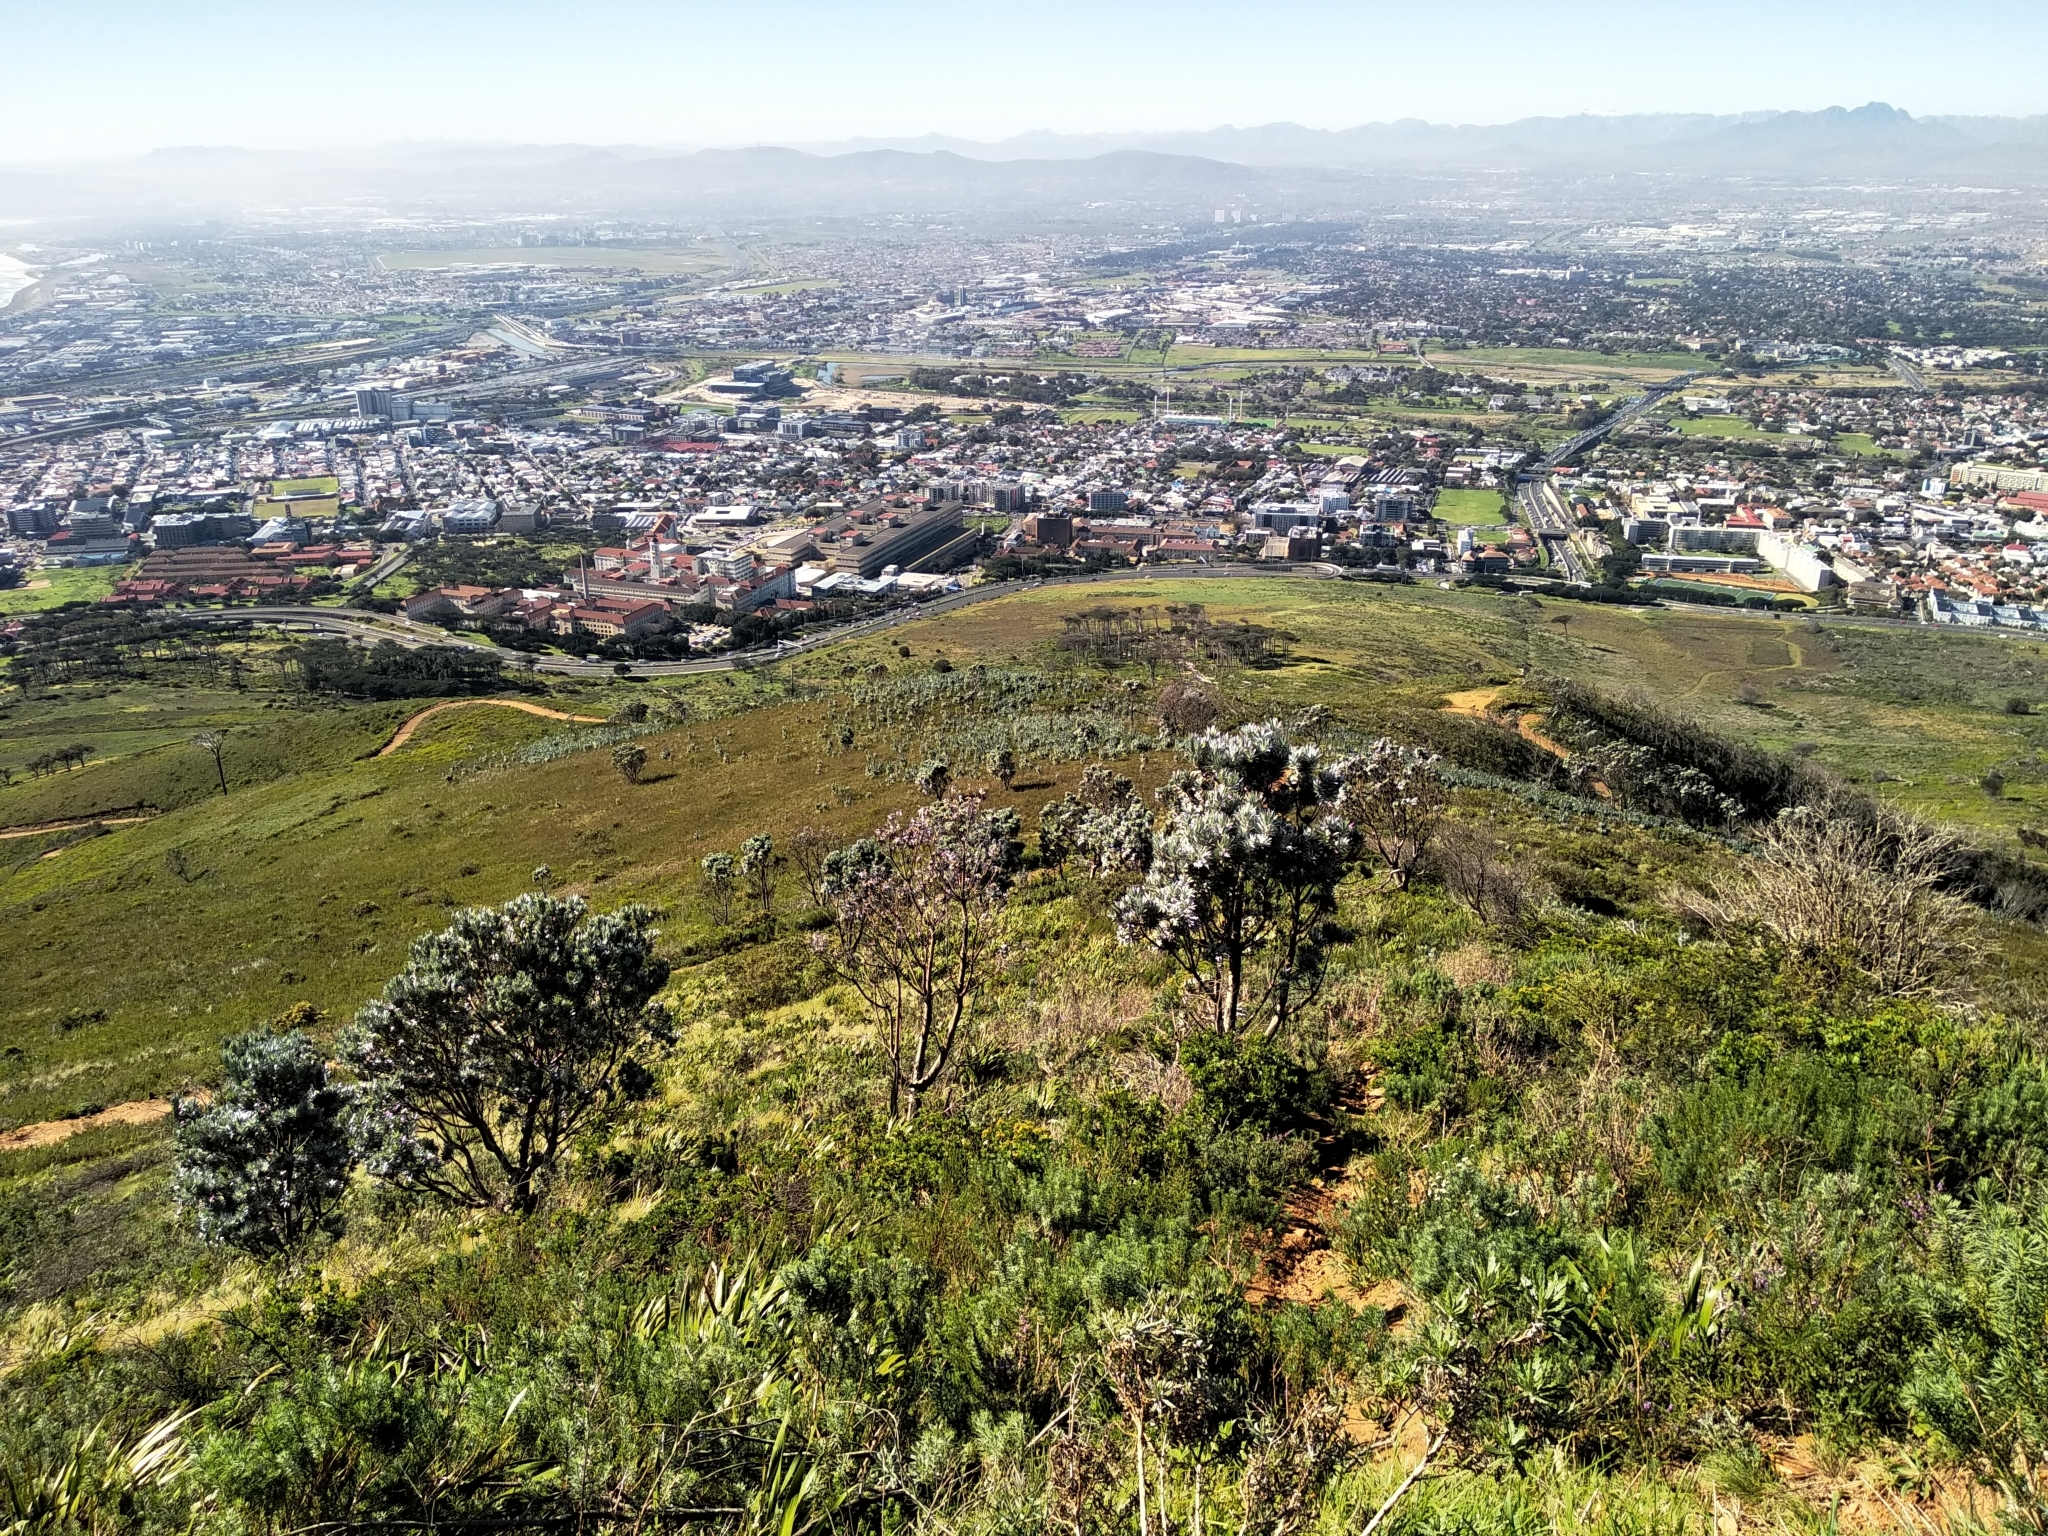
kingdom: Plantae
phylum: Tracheophyta
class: Magnoliopsida
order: Proteales
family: Proteaceae
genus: Leucadendron
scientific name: Leucadendron argenteum
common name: Cape silver tree
